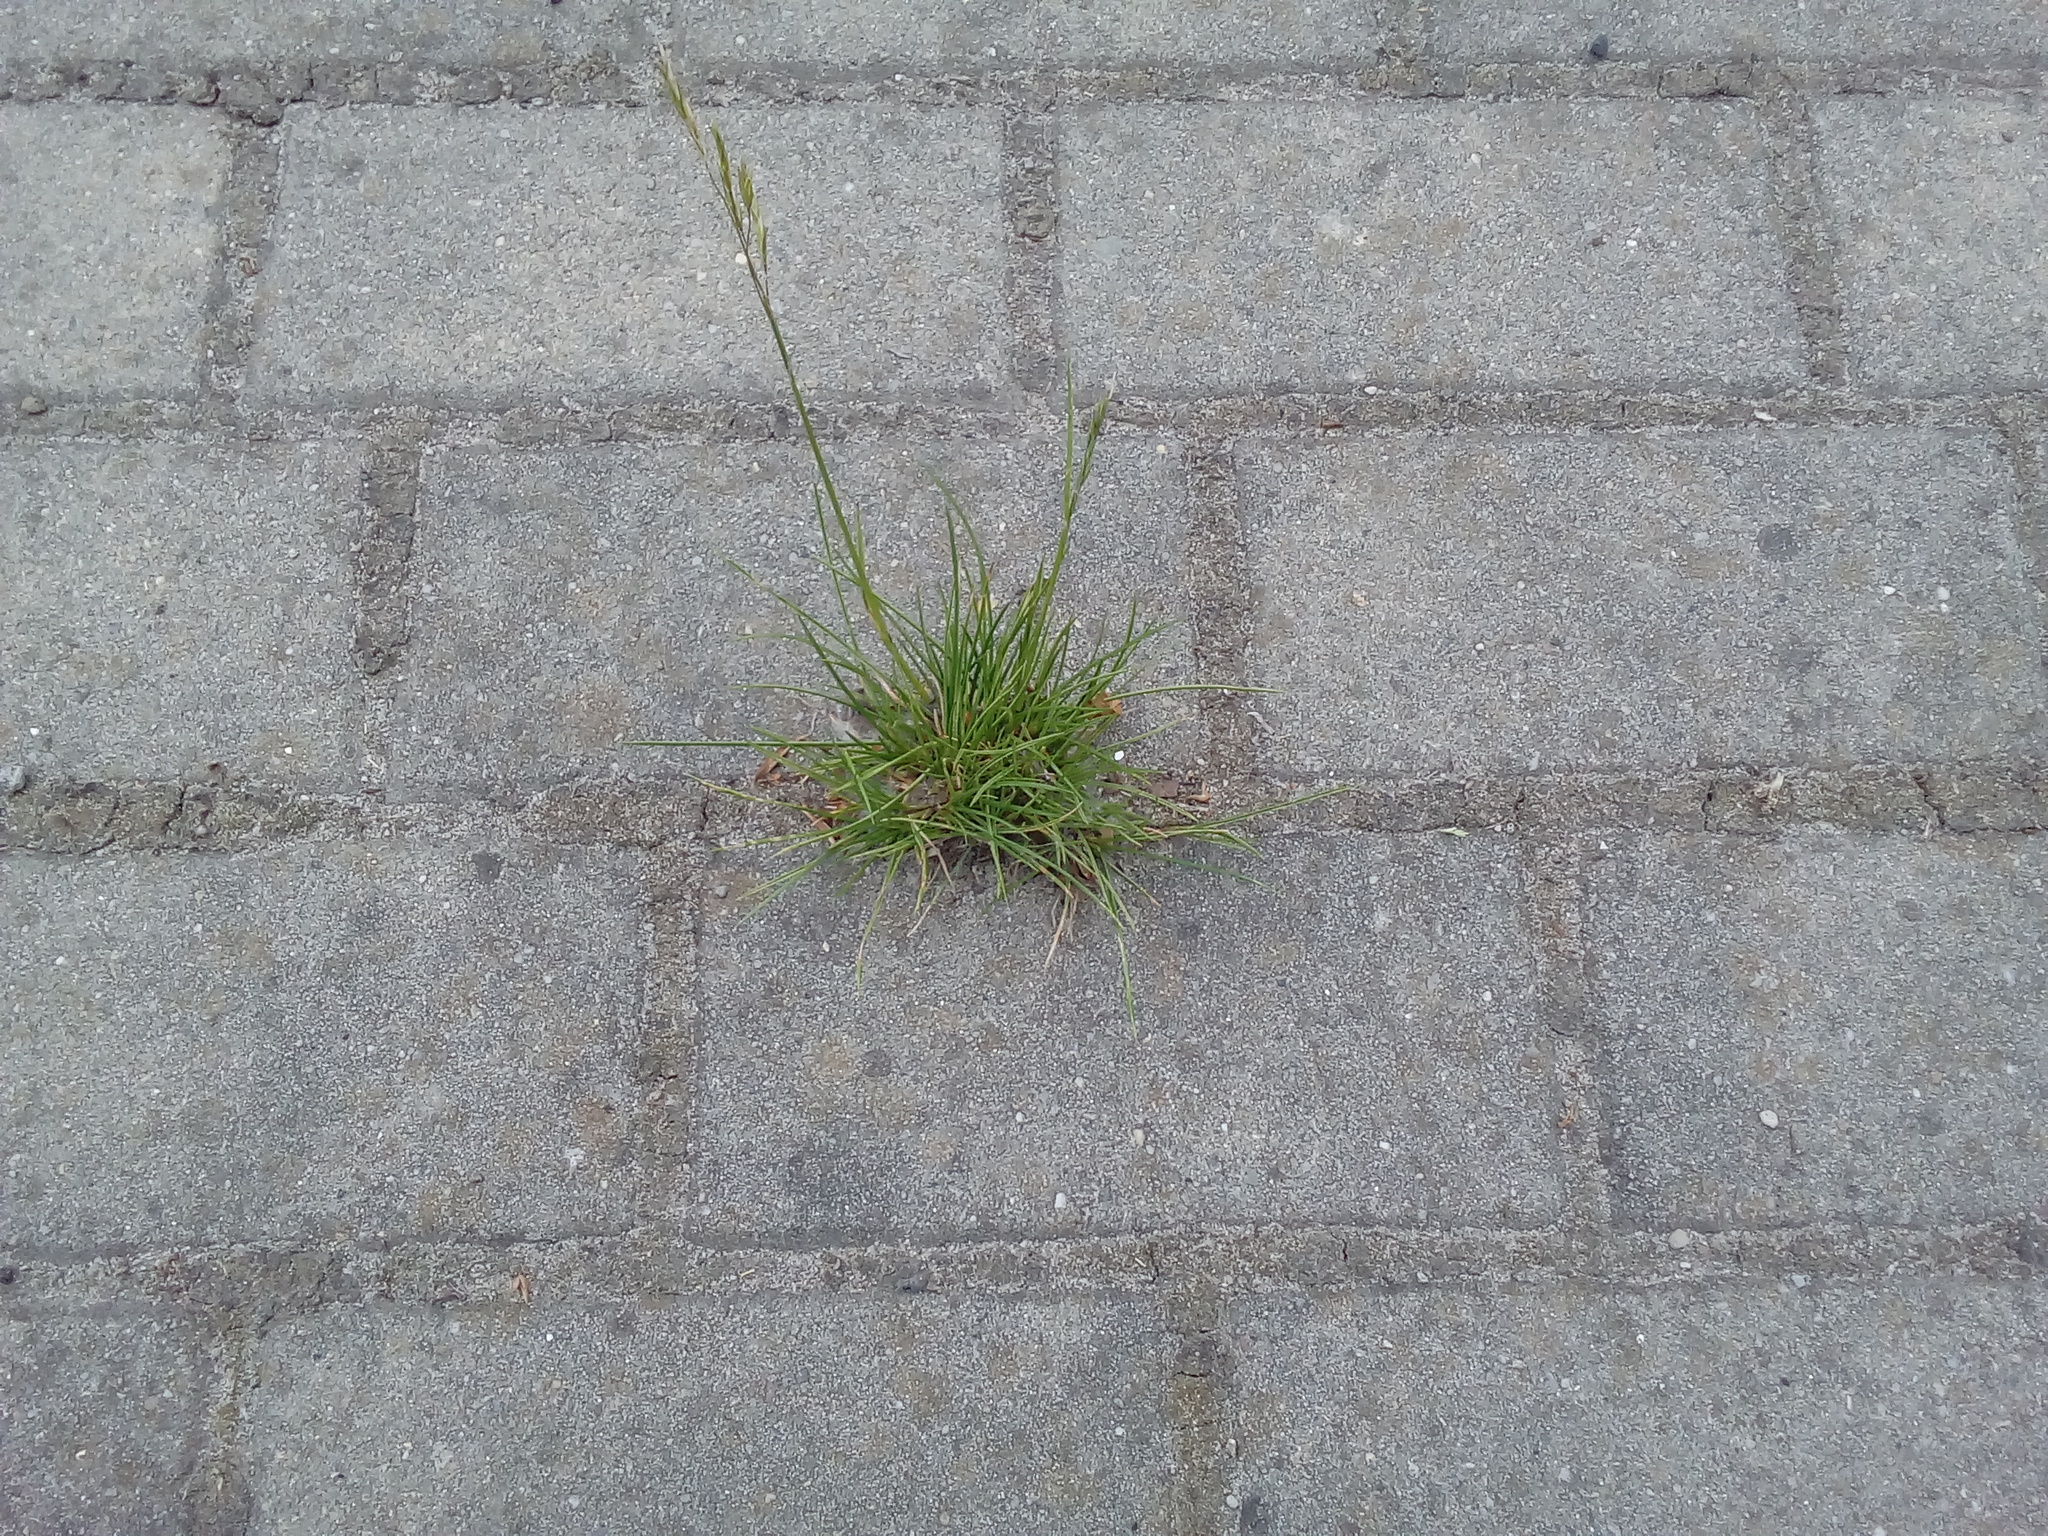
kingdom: Plantae
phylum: Tracheophyta
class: Liliopsida
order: Poales
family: Poaceae
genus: Lolium
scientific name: Lolium perenne
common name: Perennial ryegrass
